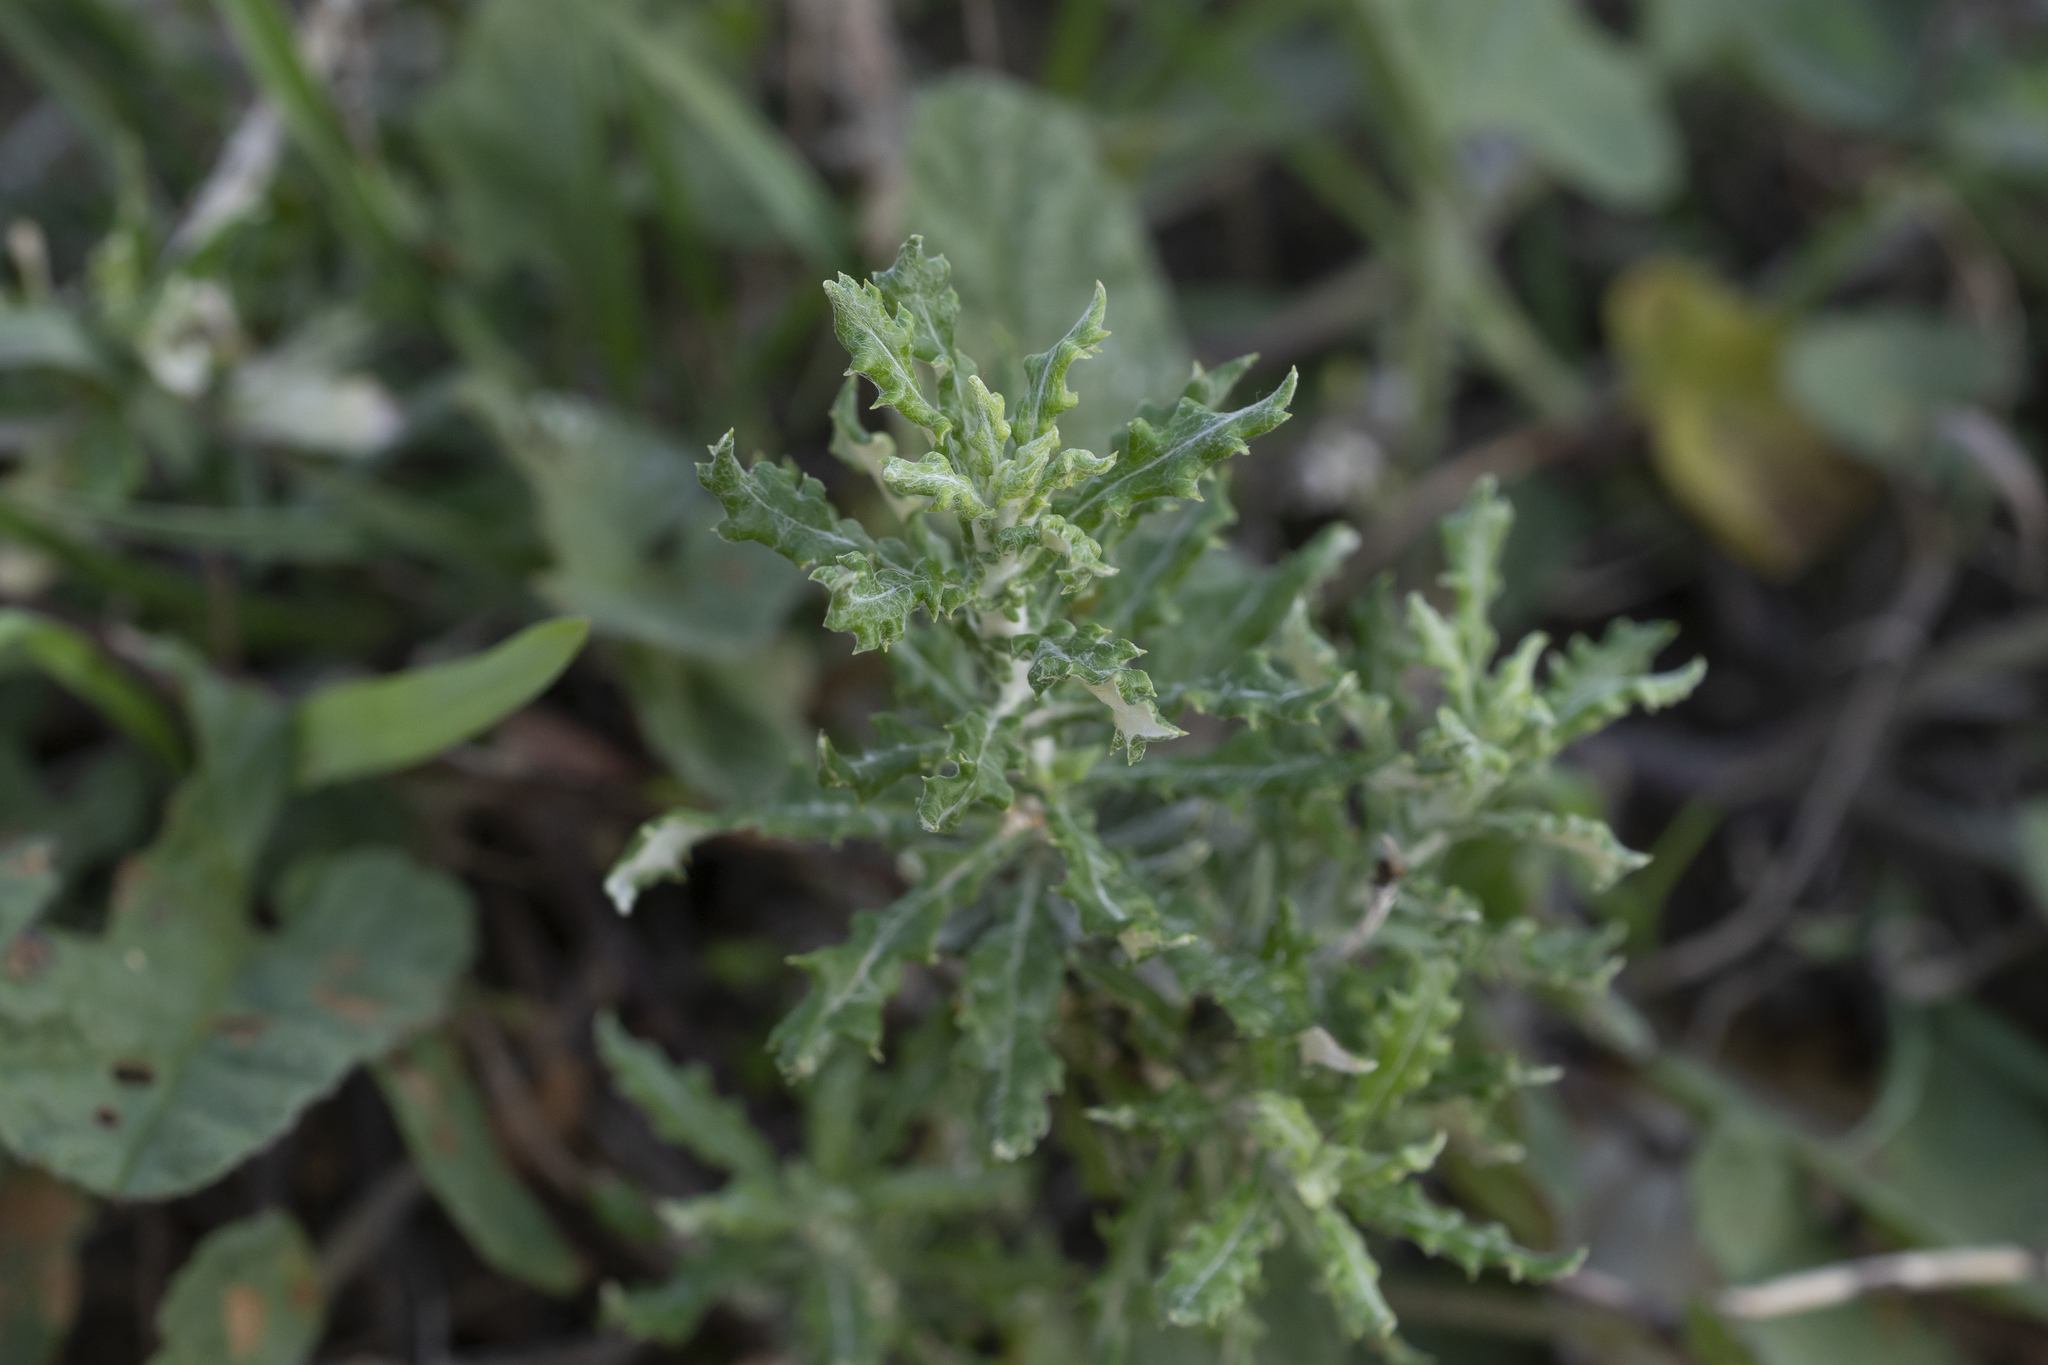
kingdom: Plantae
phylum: Tracheophyta
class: Magnoliopsida
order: Asterales
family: Asteraceae
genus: Phagnalon
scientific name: Phagnalon
